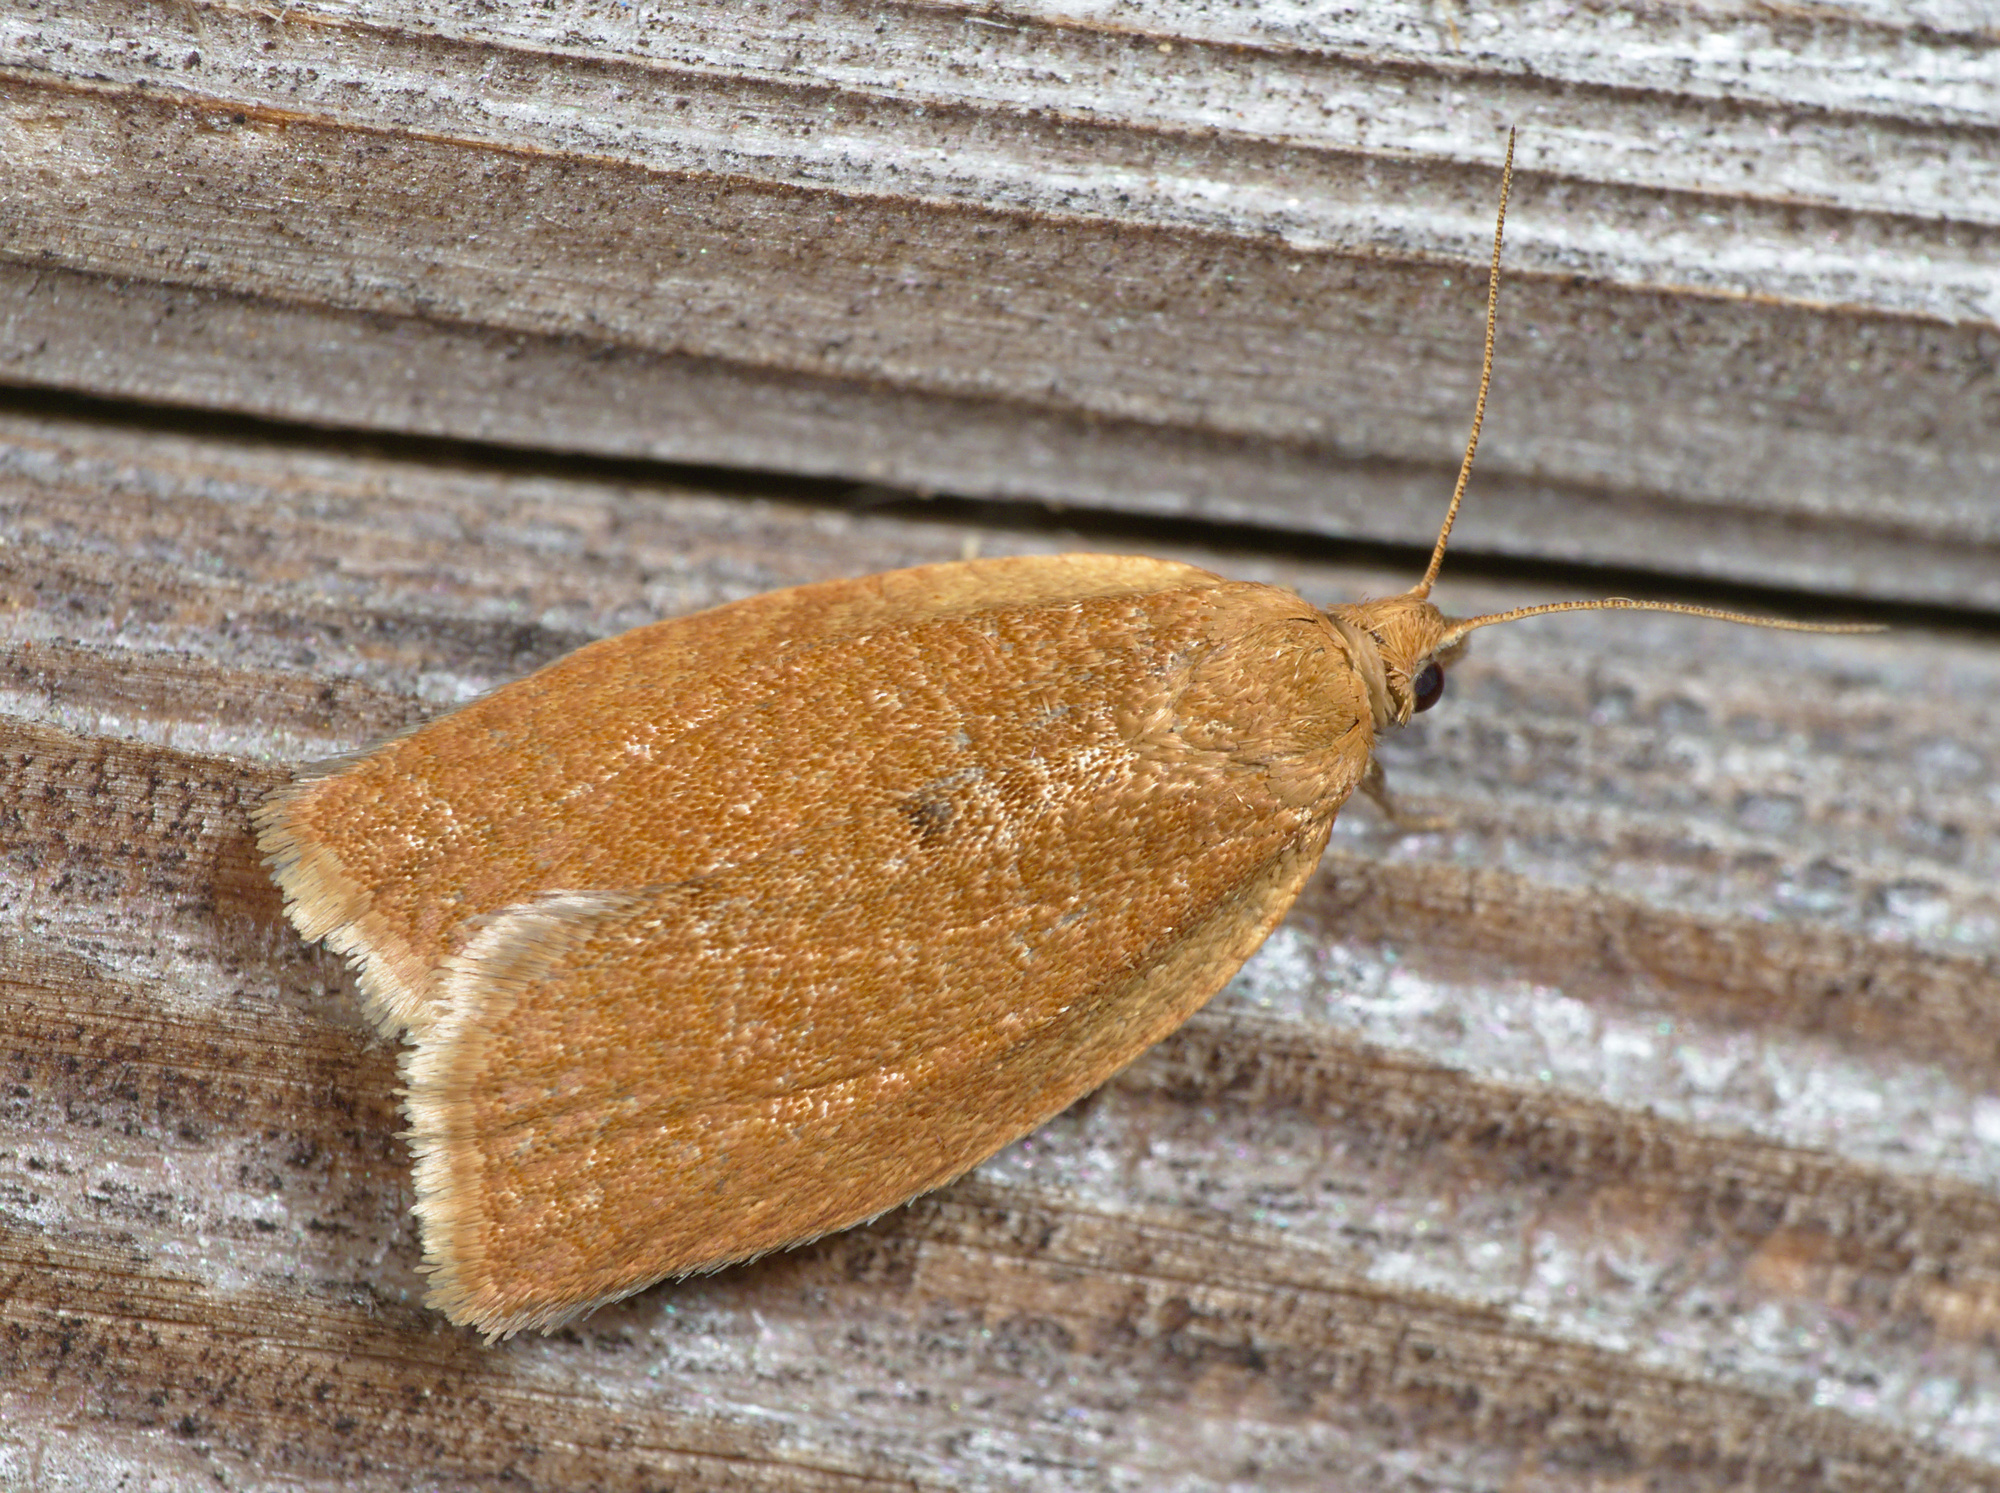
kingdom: Animalia
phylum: Arthropoda
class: Insecta
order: Lepidoptera
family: Tortricidae
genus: Clepsis
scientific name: Clepsis consimilana
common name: Privet tortrix
